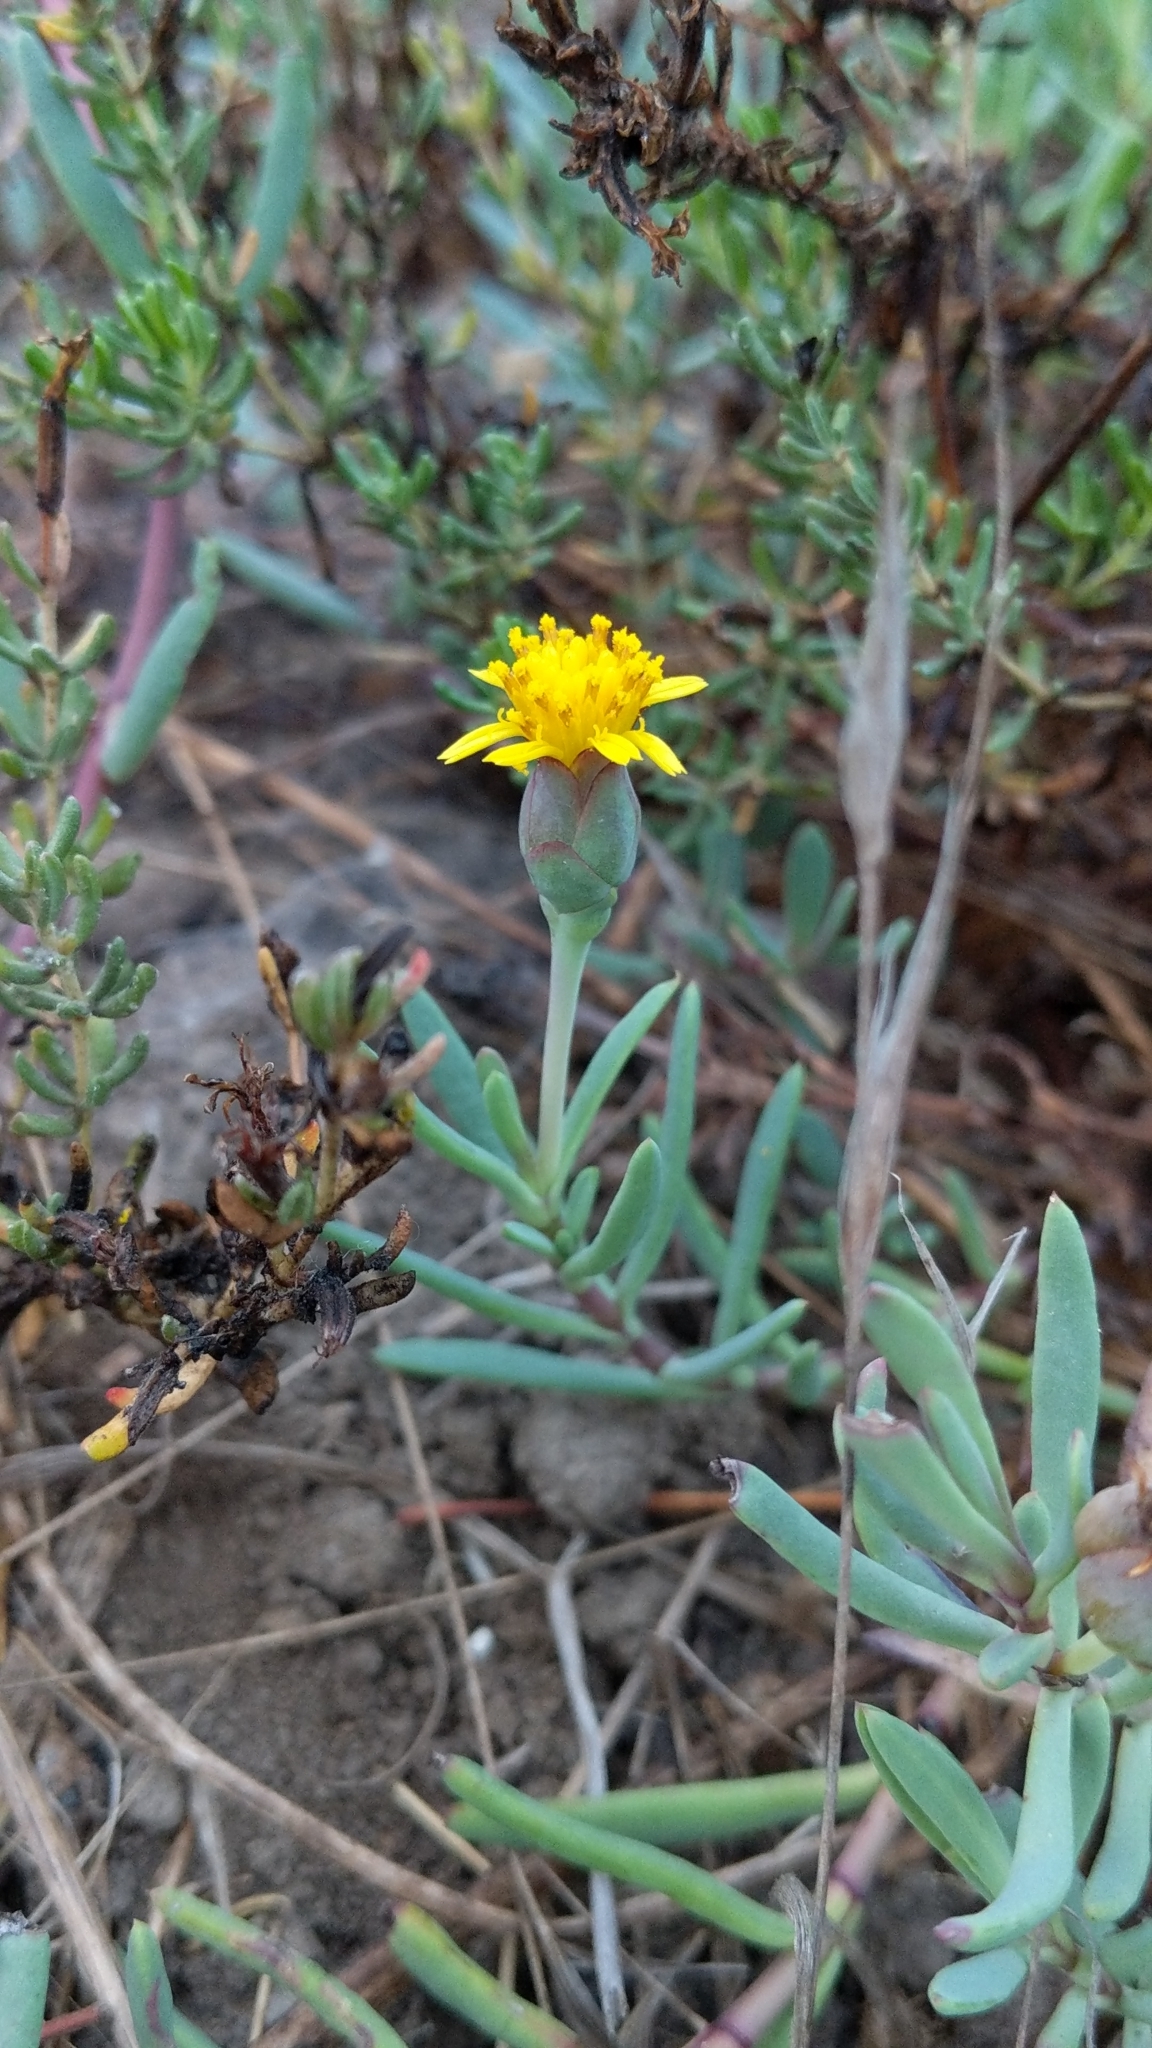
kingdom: Plantae
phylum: Tracheophyta
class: Magnoliopsida
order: Asterales
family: Asteraceae
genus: Jaumea
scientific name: Jaumea carnosa
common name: Fleshy jaumea
